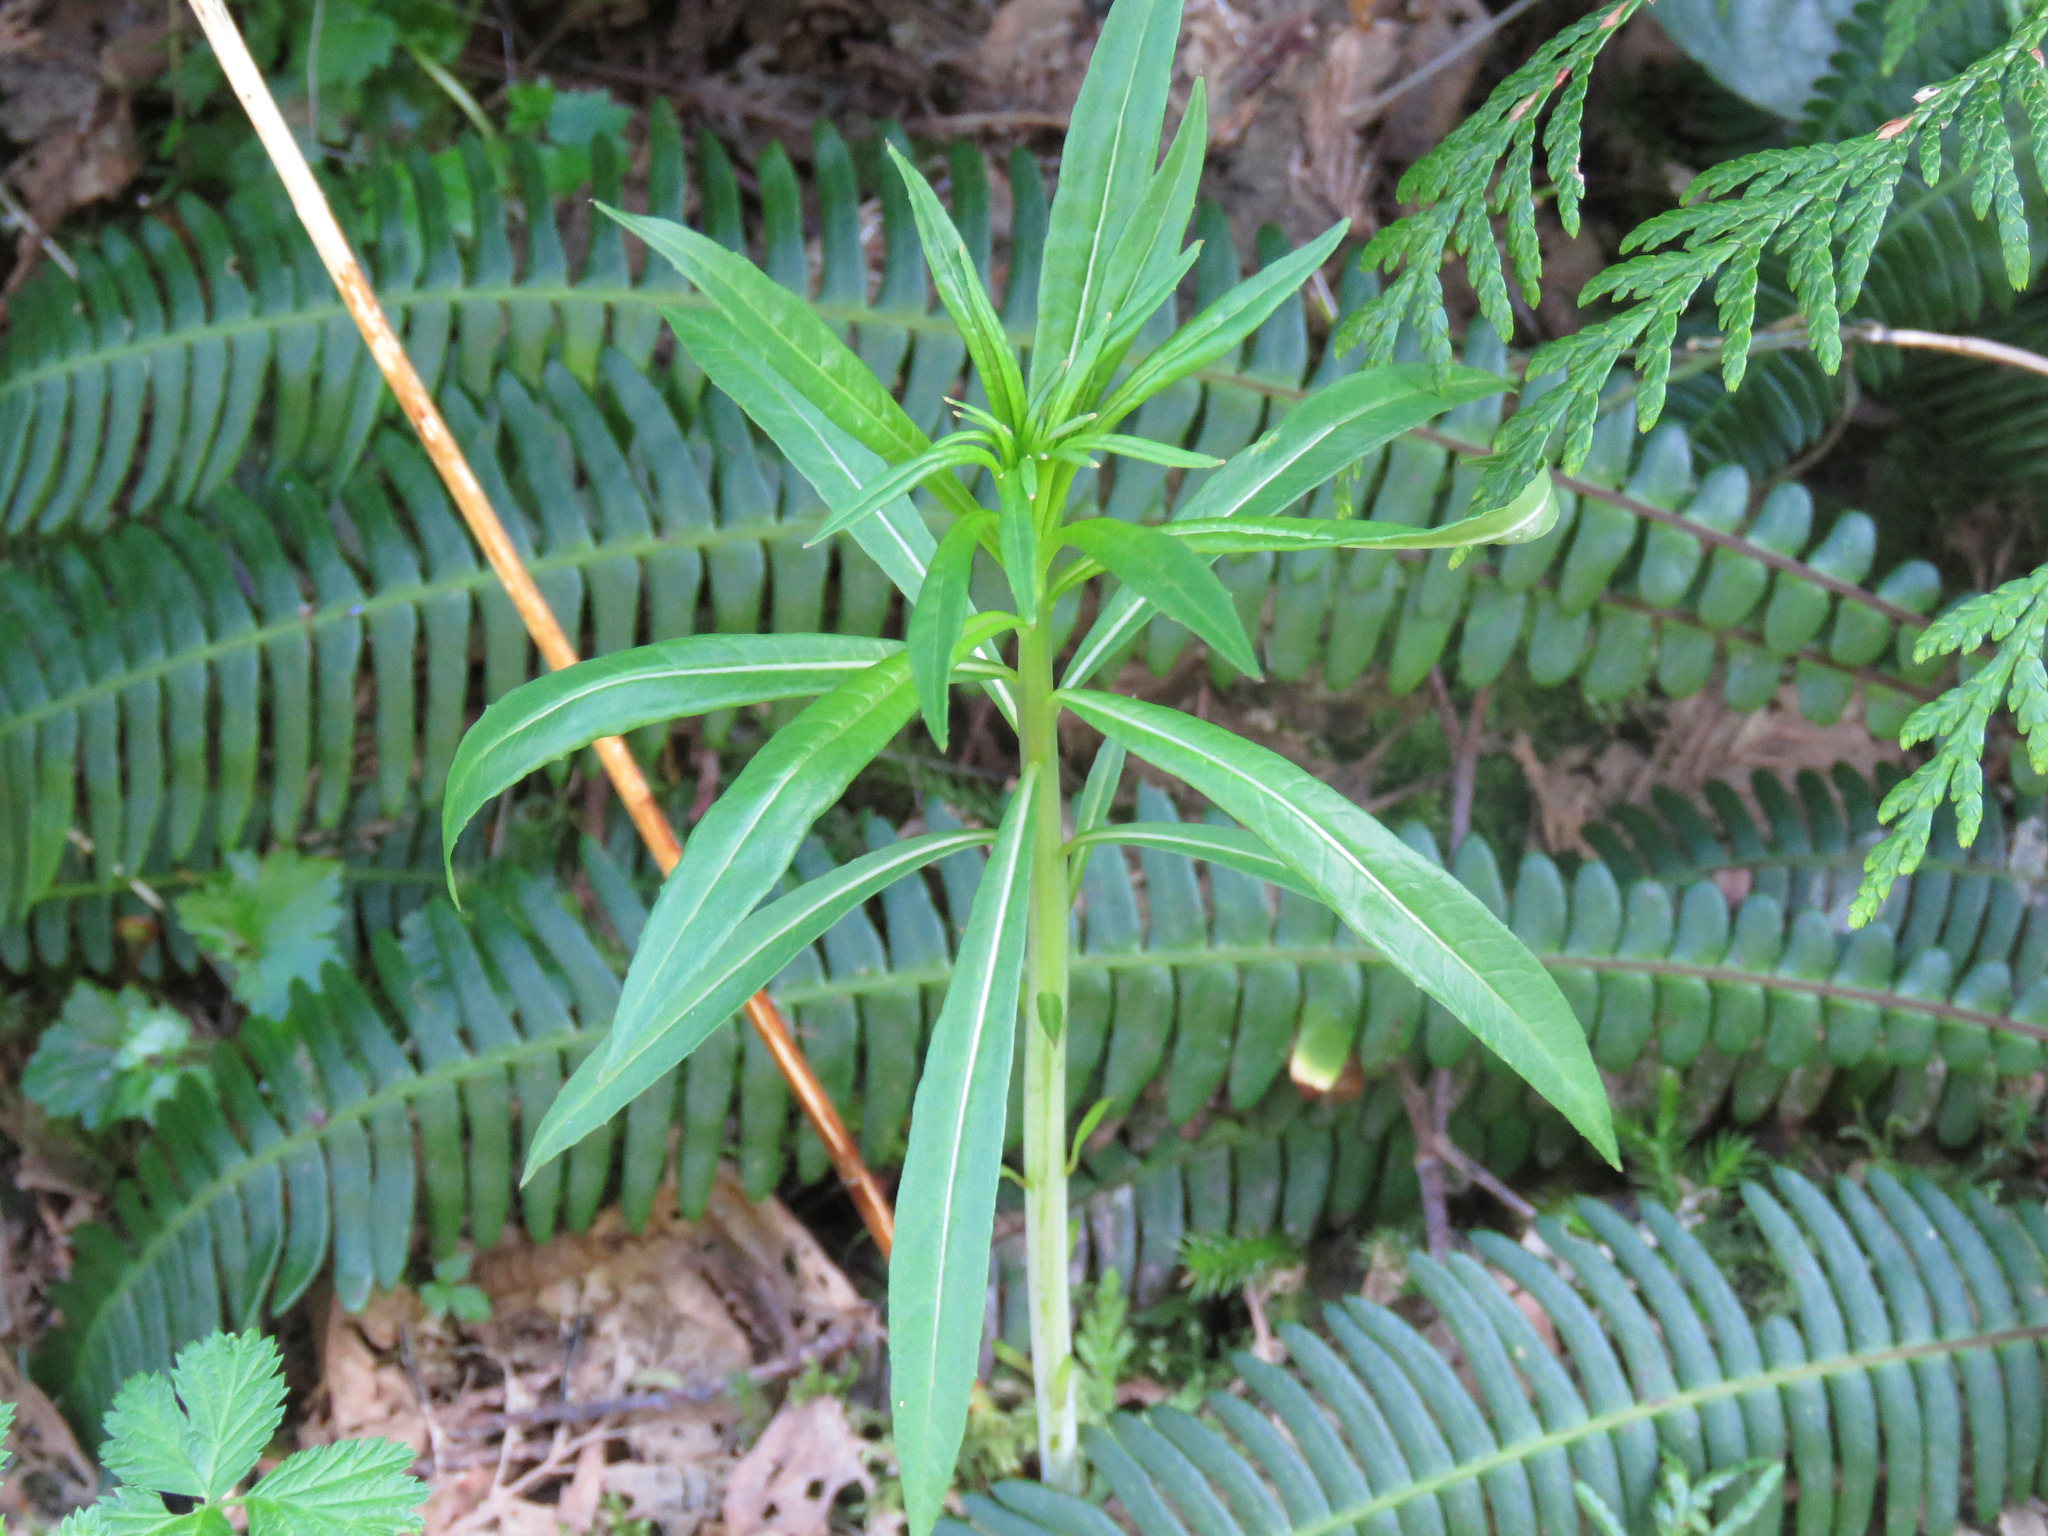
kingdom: Plantae
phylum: Tracheophyta
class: Magnoliopsida
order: Myrtales
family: Onagraceae
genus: Chamaenerion
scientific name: Chamaenerion angustifolium
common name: Fireweed
